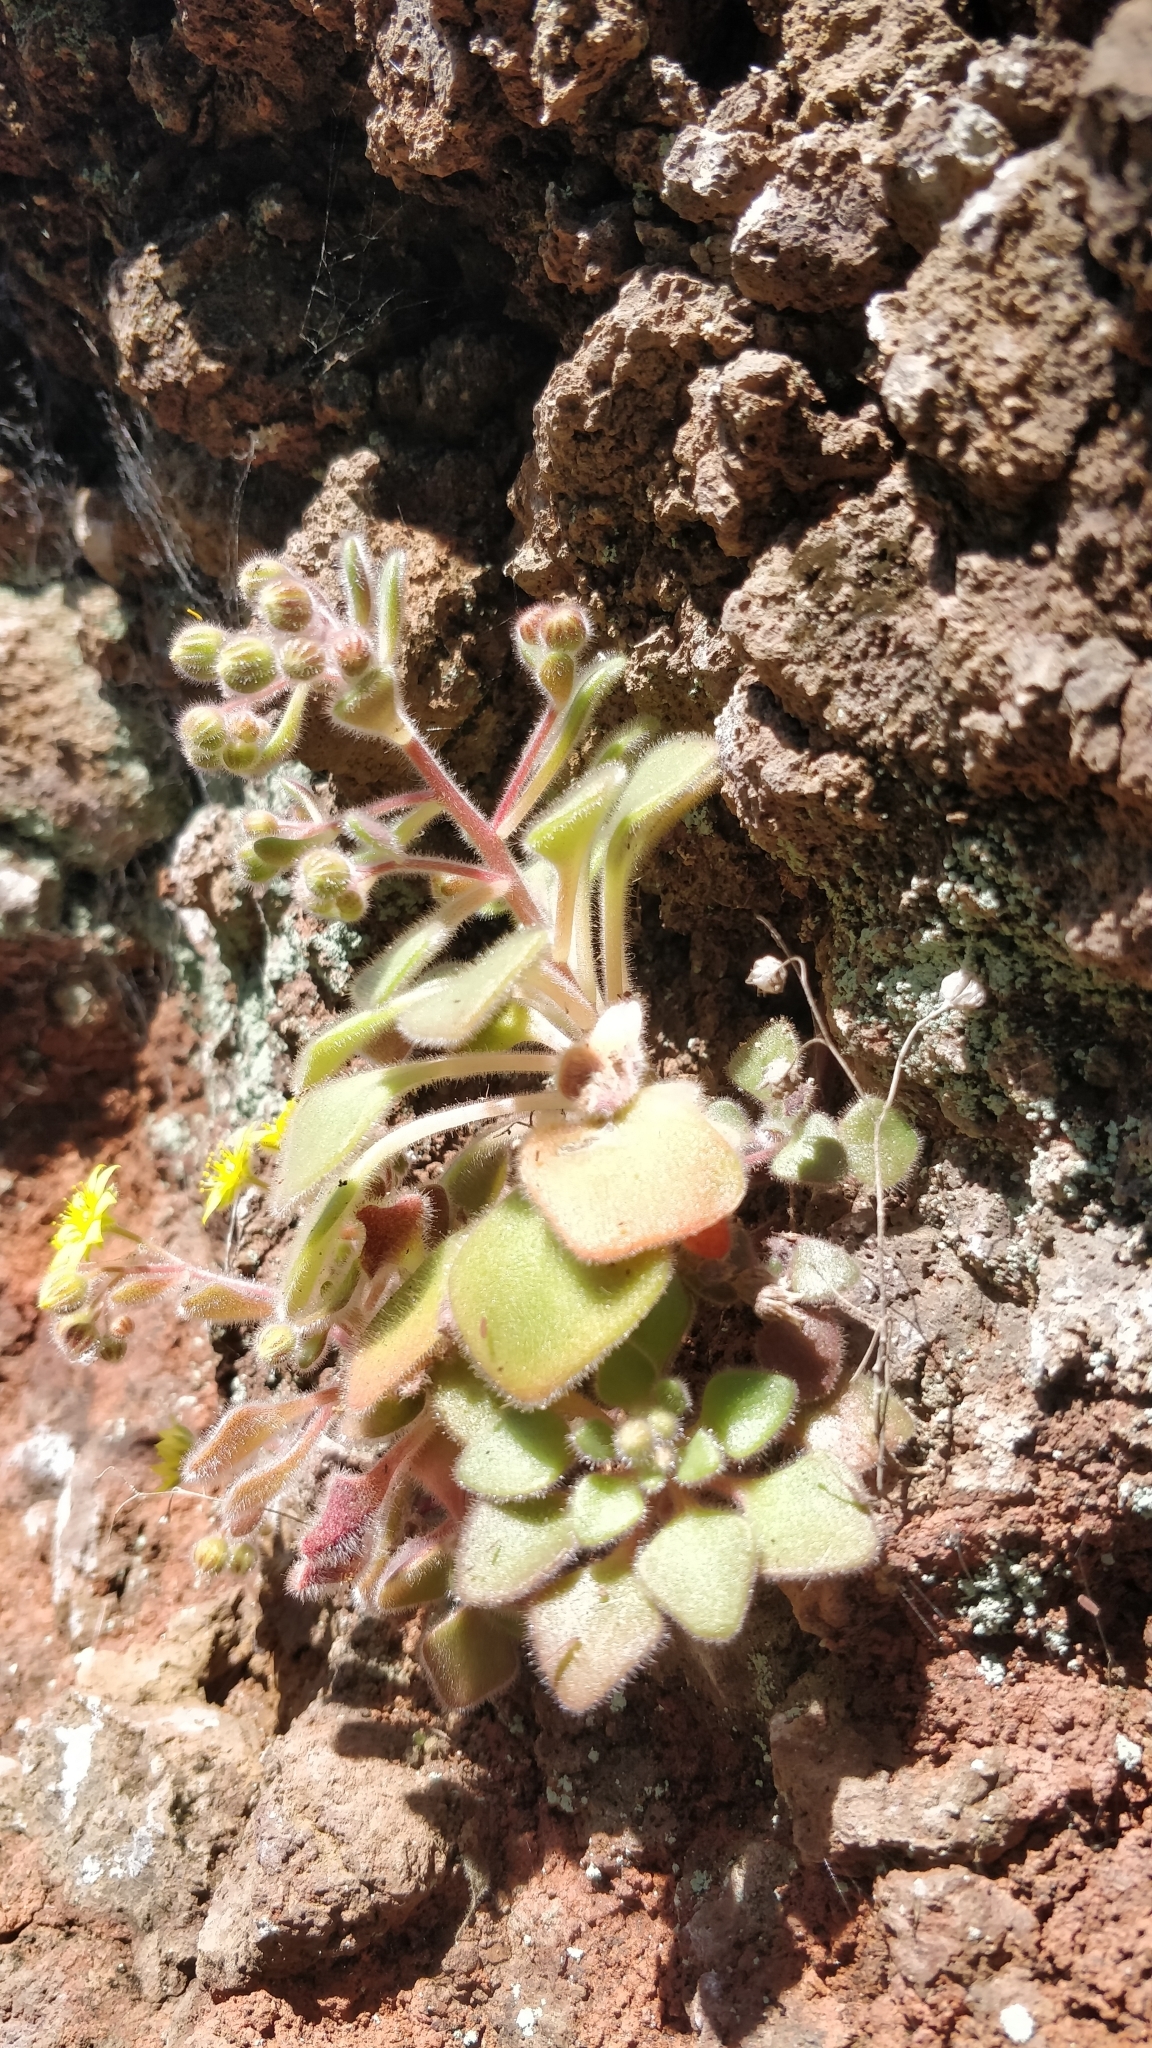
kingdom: Plantae
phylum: Tracheophyta
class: Magnoliopsida
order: Saxifragales
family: Crassulaceae
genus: Aichryson
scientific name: Aichryson villosum
